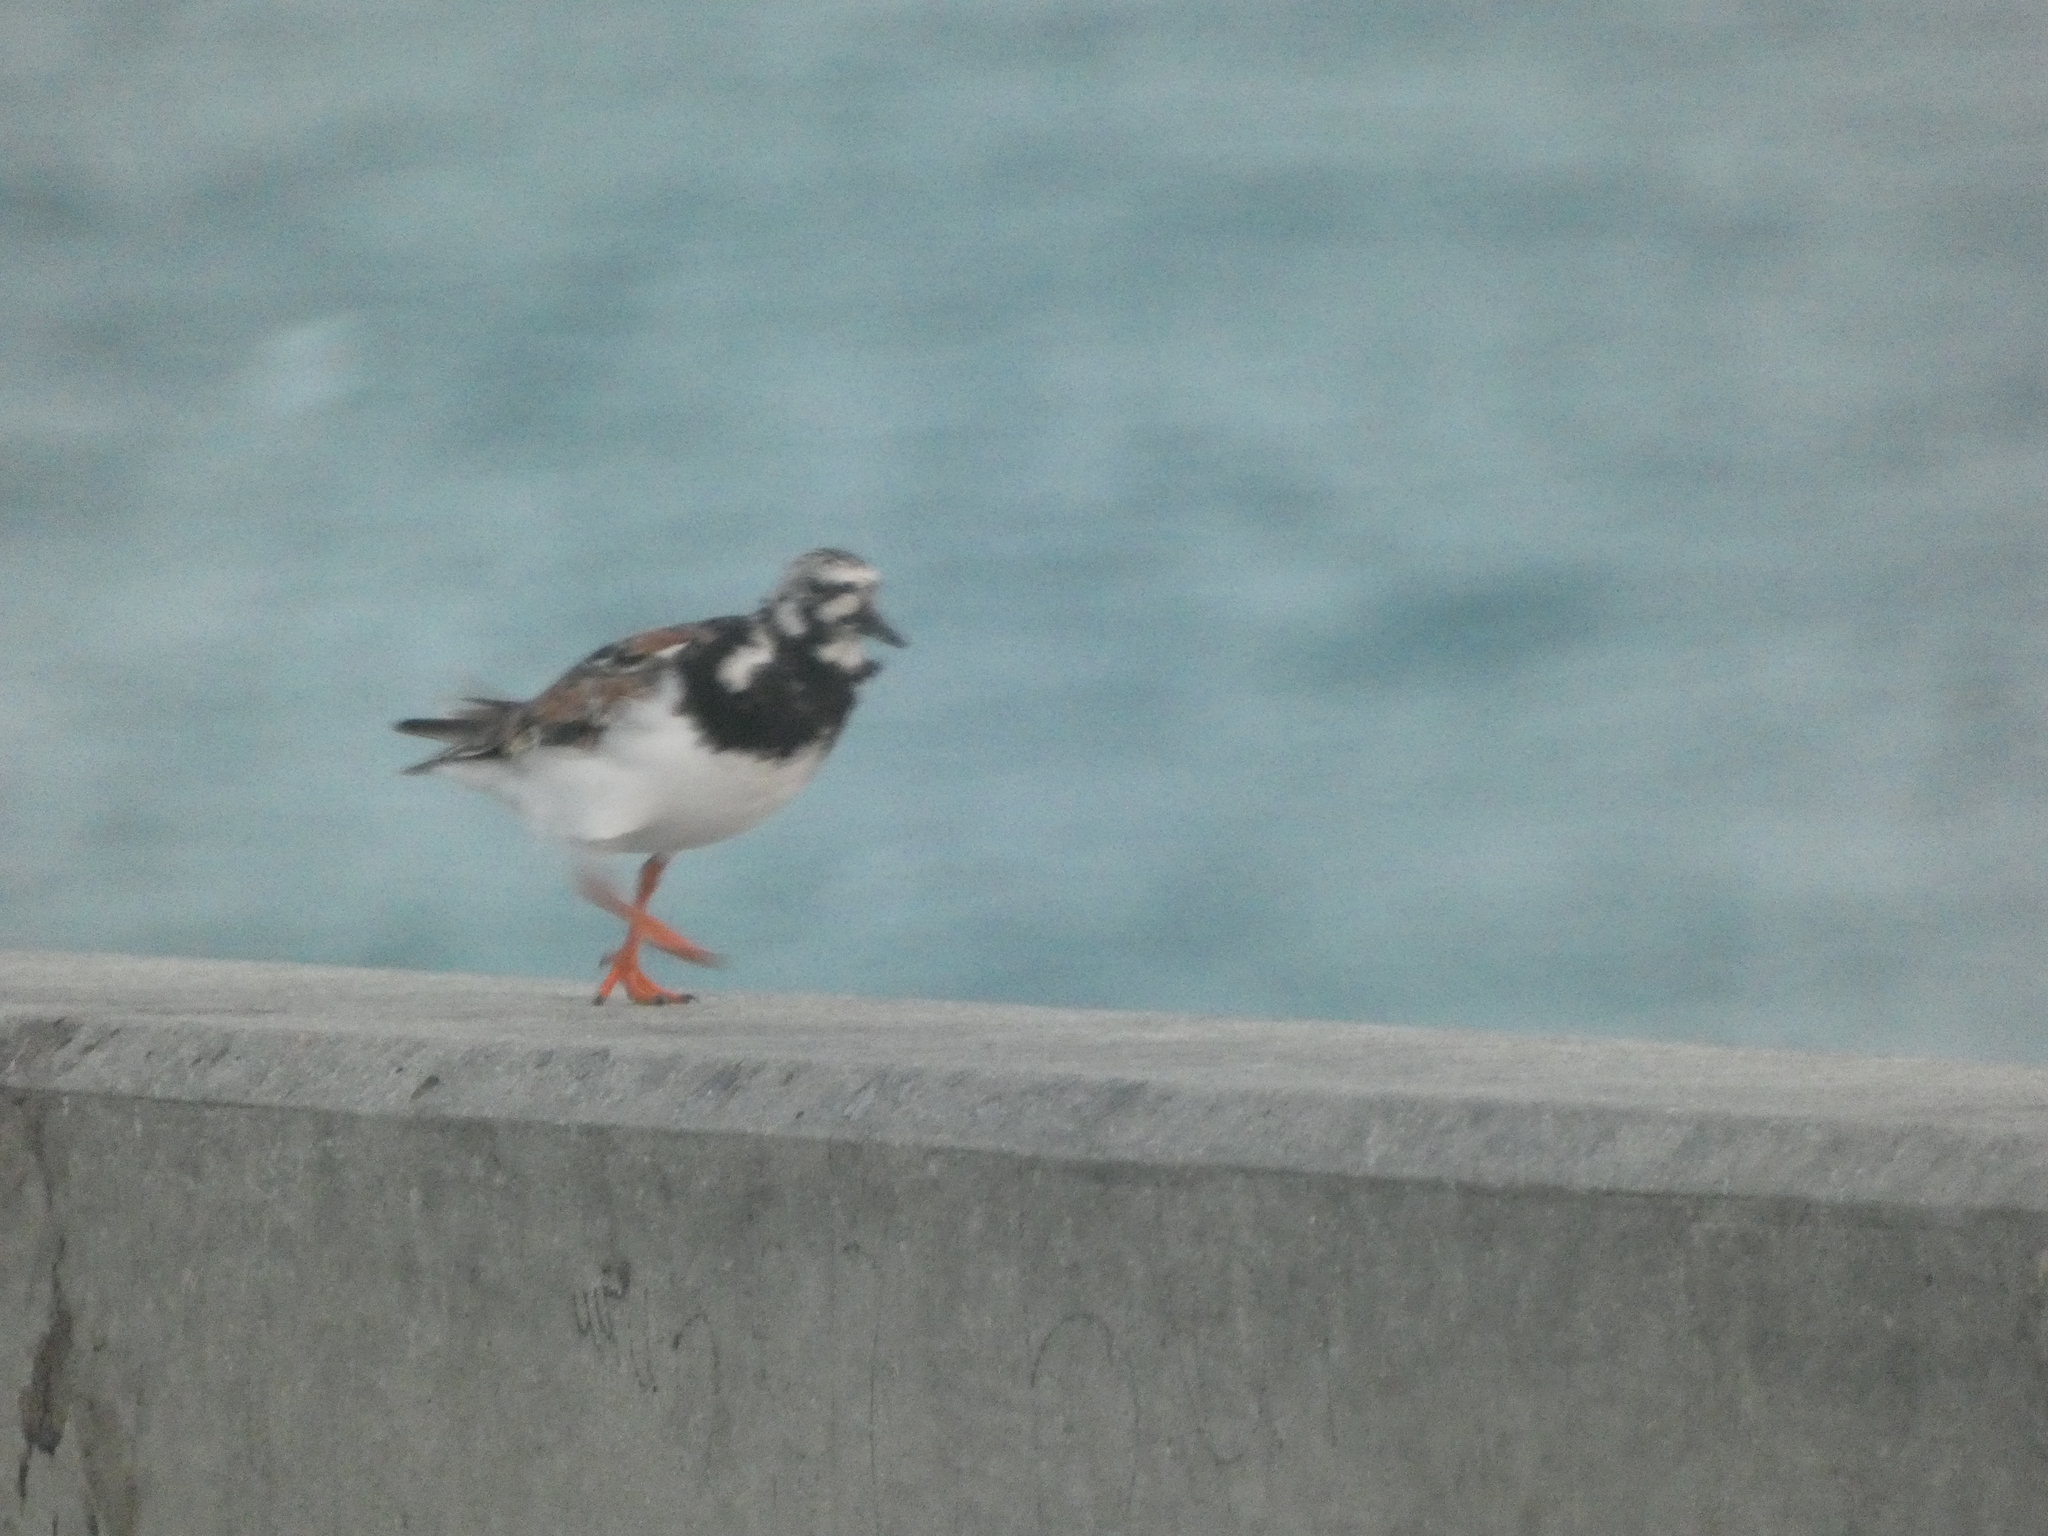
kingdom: Animalia
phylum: Chordata
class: Aves
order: Charadriiformes
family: Scolopacidae
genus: Arenaria
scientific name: Arenaria interpres
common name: Ruddy turnstone
